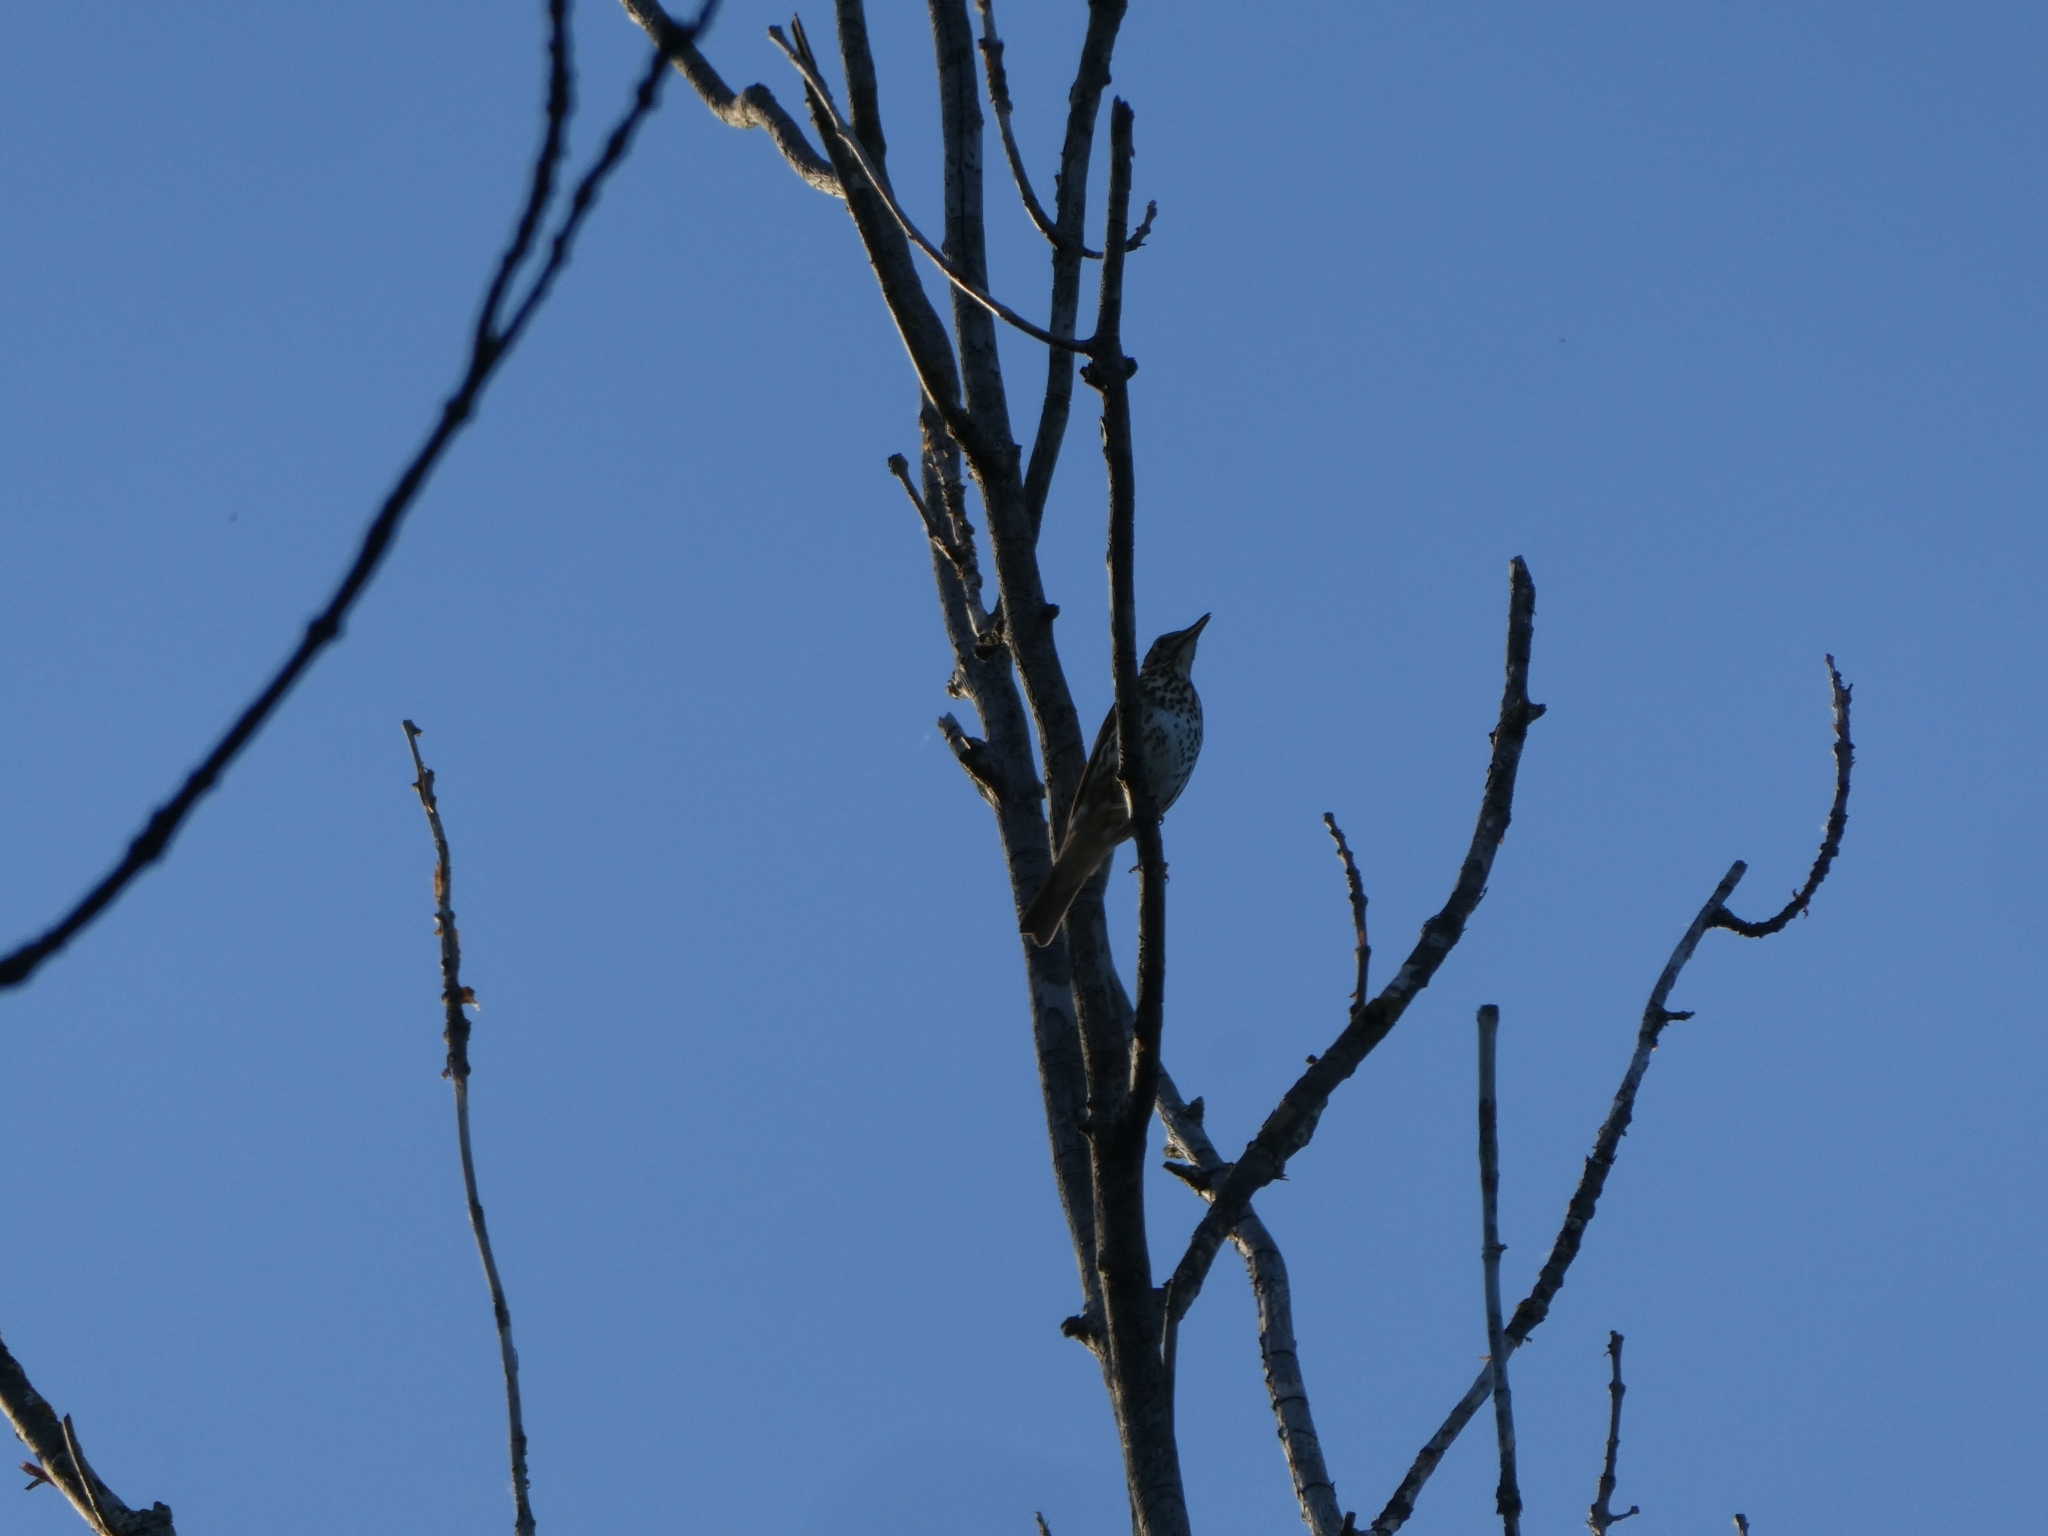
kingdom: Animalia
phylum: Chordata
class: Aves
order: Passeriformes
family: Turdidae
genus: Turdus
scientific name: Turdus philomelos
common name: Song thrush
